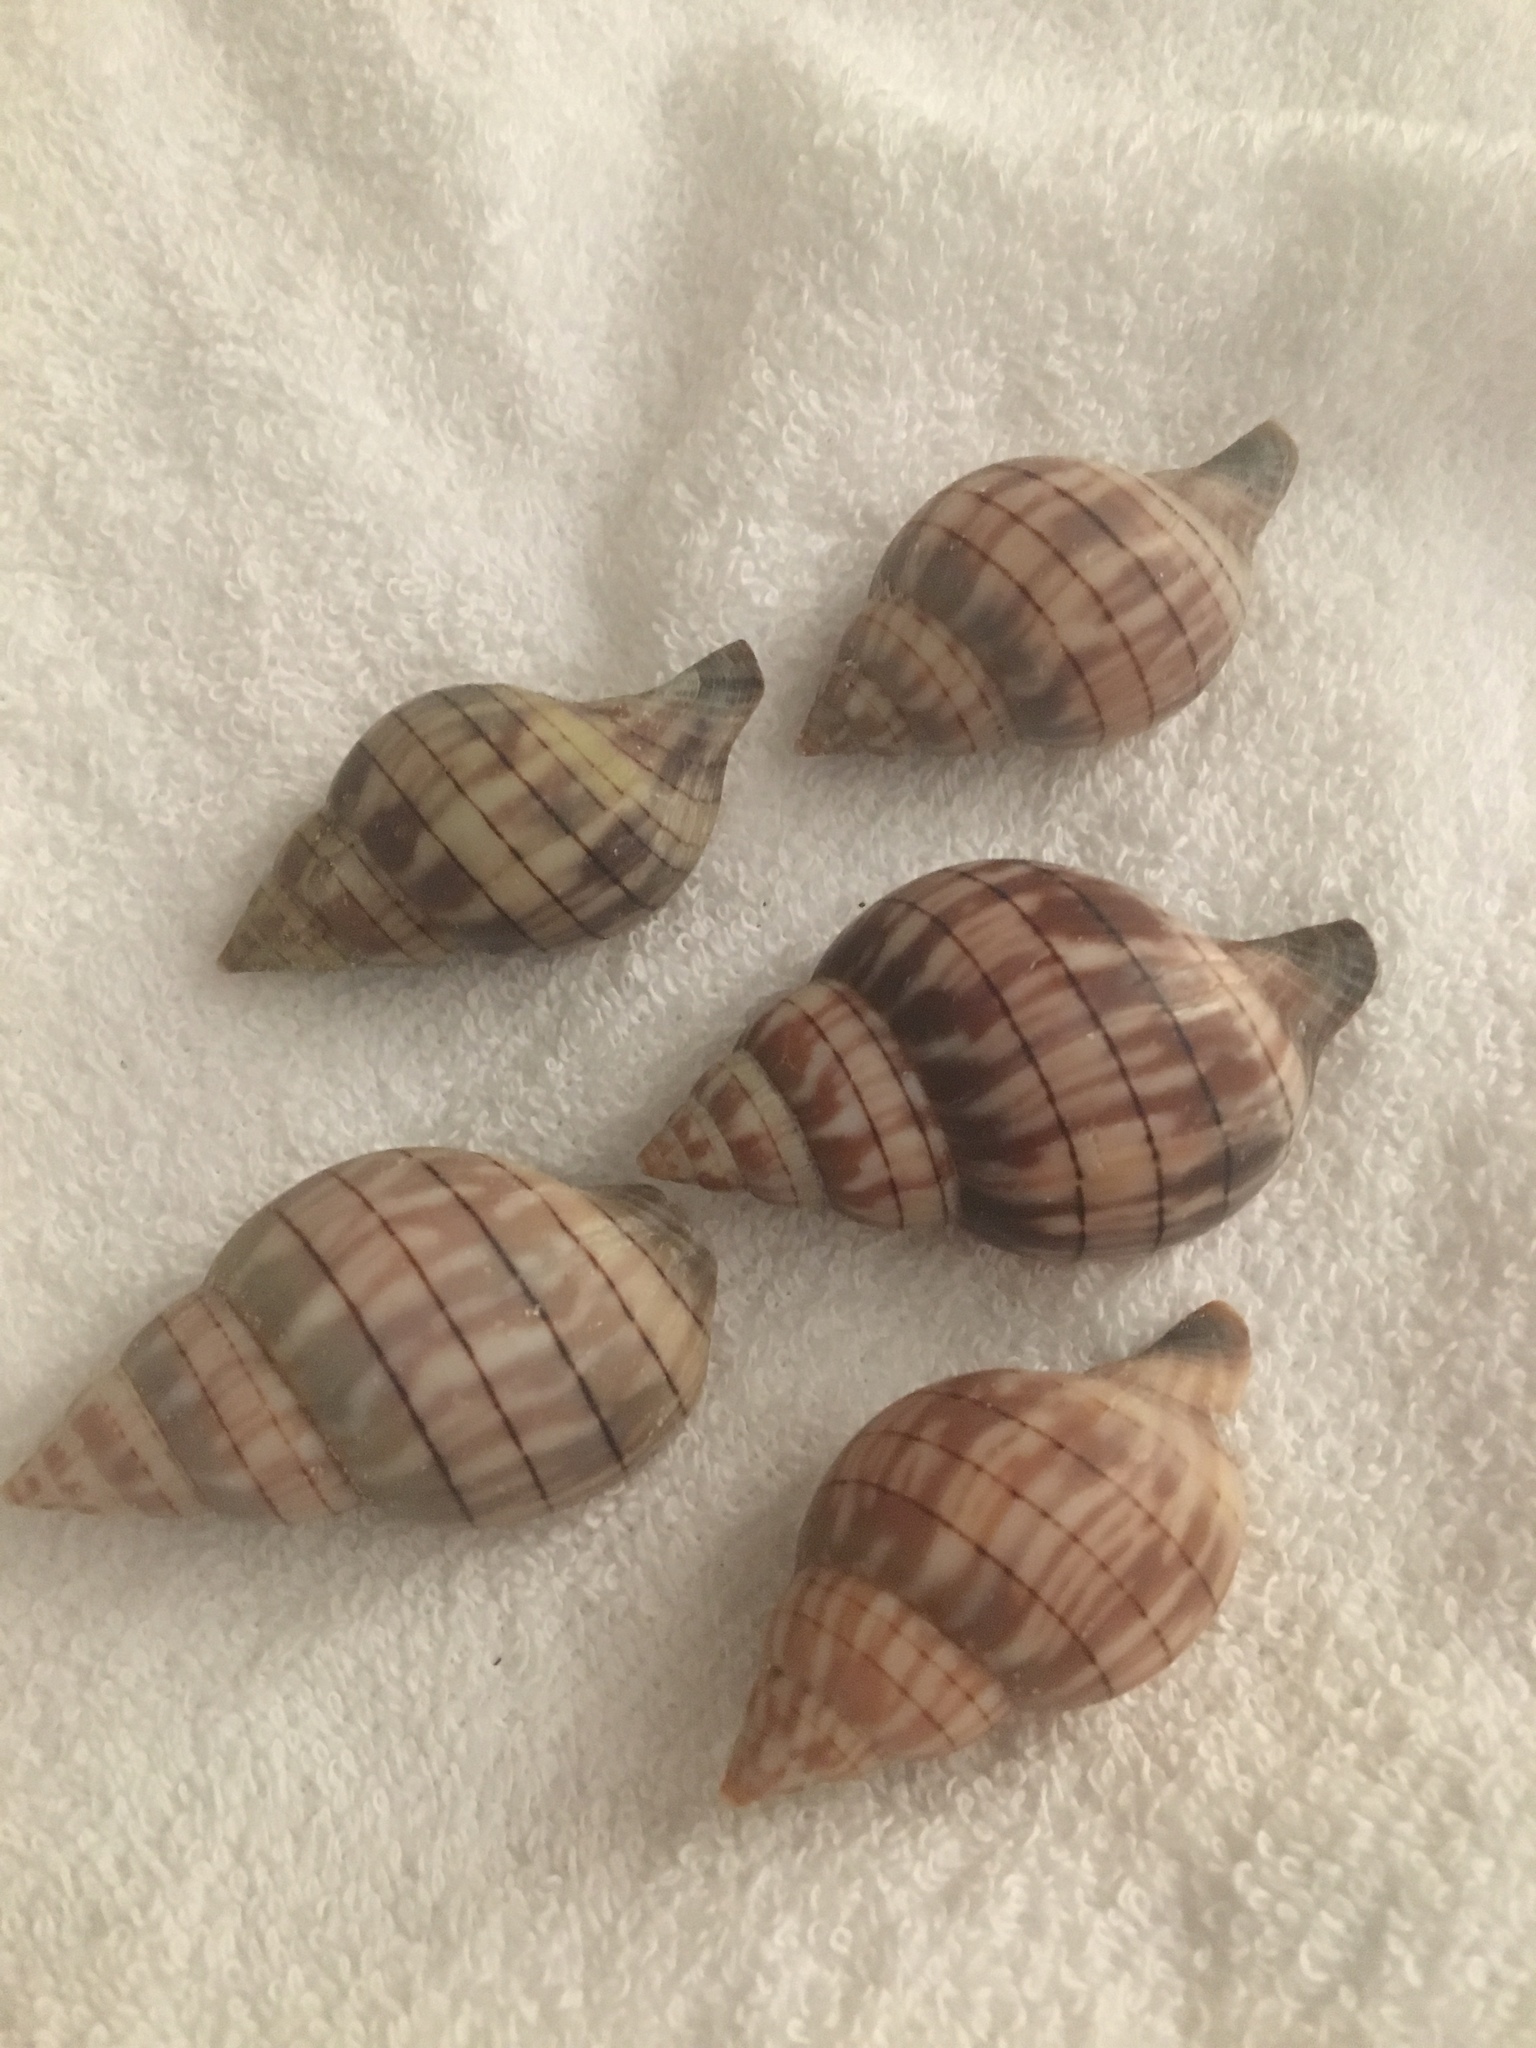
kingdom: Animalia
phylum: Mollusca
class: Gastropoda
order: Neogastropoda
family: Fasciolariidae
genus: Cinctura
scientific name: Cinctura hunteria
